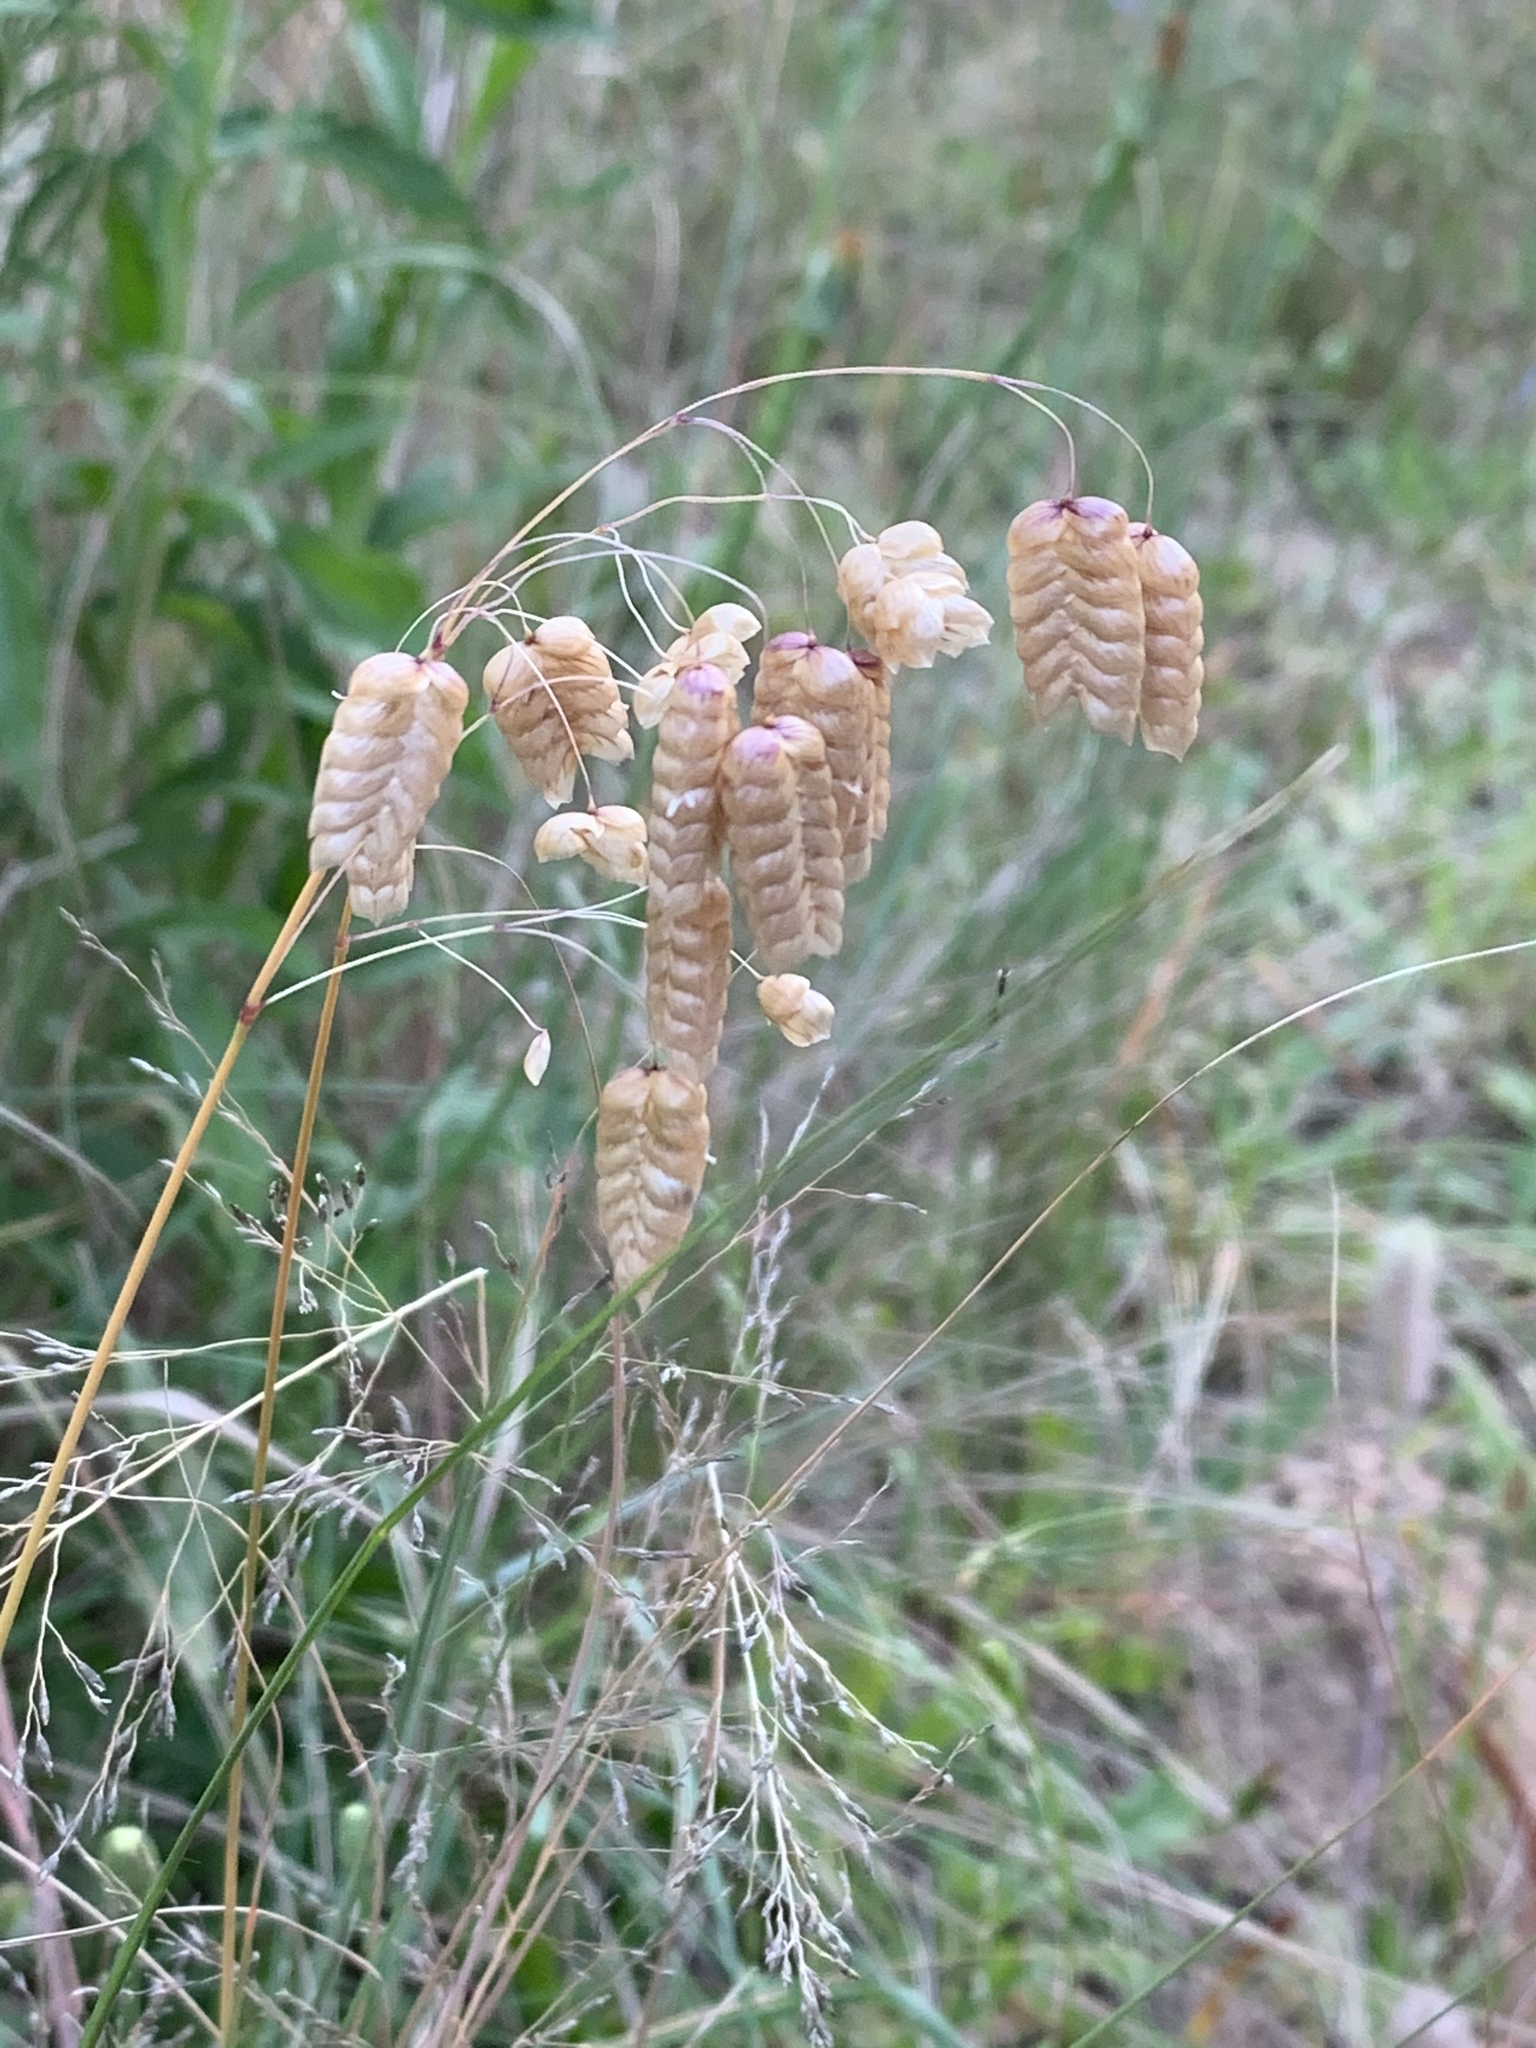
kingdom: Plantae
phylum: Tracheophyta
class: Liliopsida
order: Poales
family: Poaceae
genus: Briza
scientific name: Briza maxima
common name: Big quakinggrass
